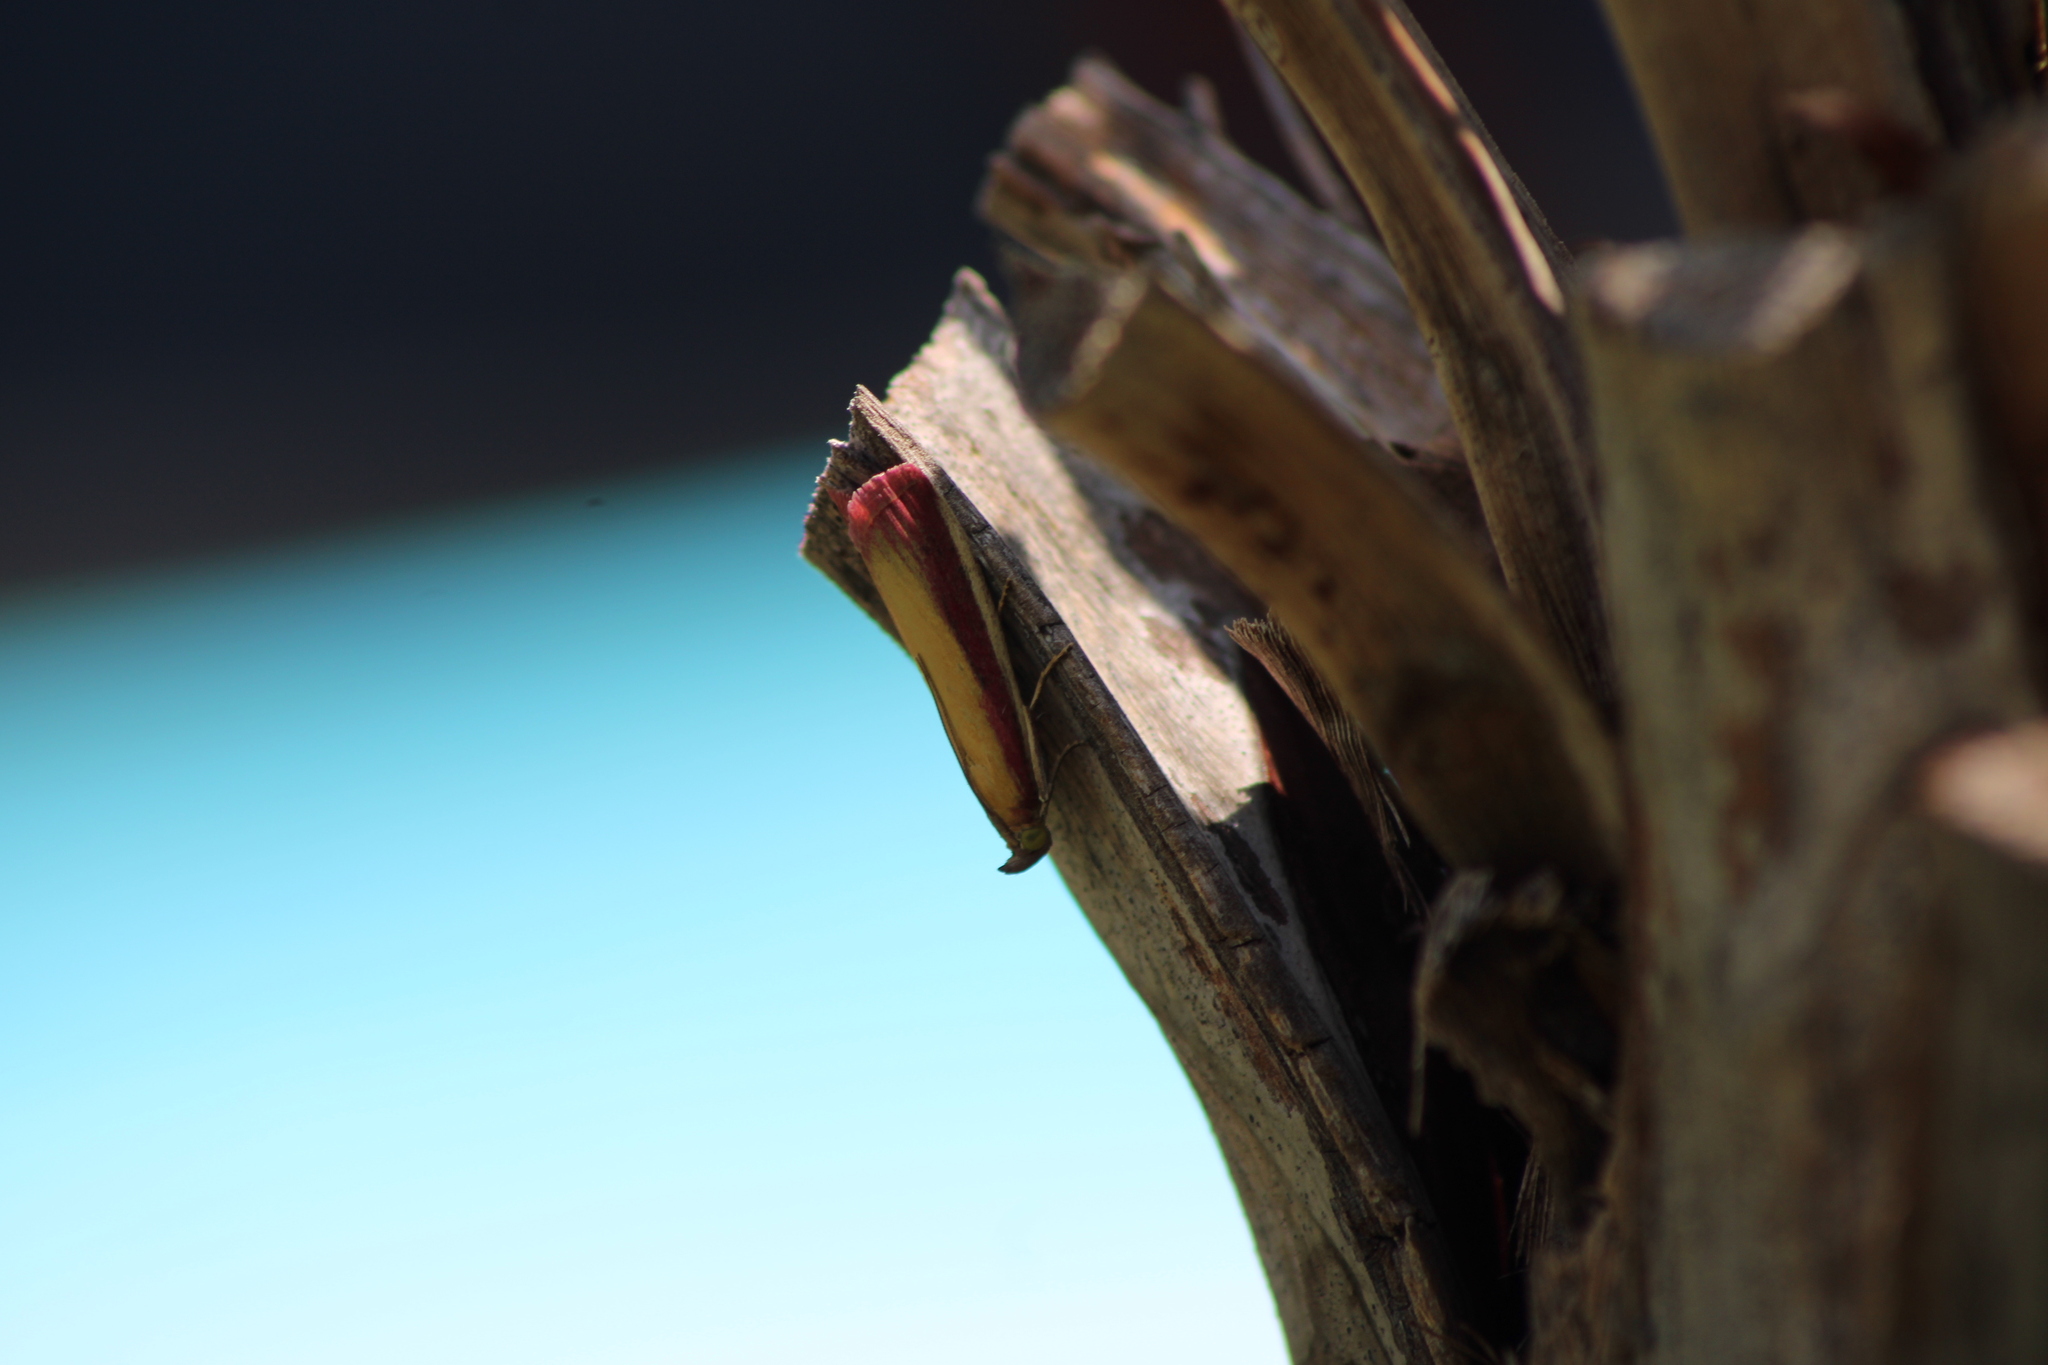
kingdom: Animalia
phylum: Arthropoda
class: Insecta
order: Lepidoptera
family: Pyralidae
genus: Oncocera
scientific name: Oncocera semirubella
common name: Rosy-striped knot-horn
